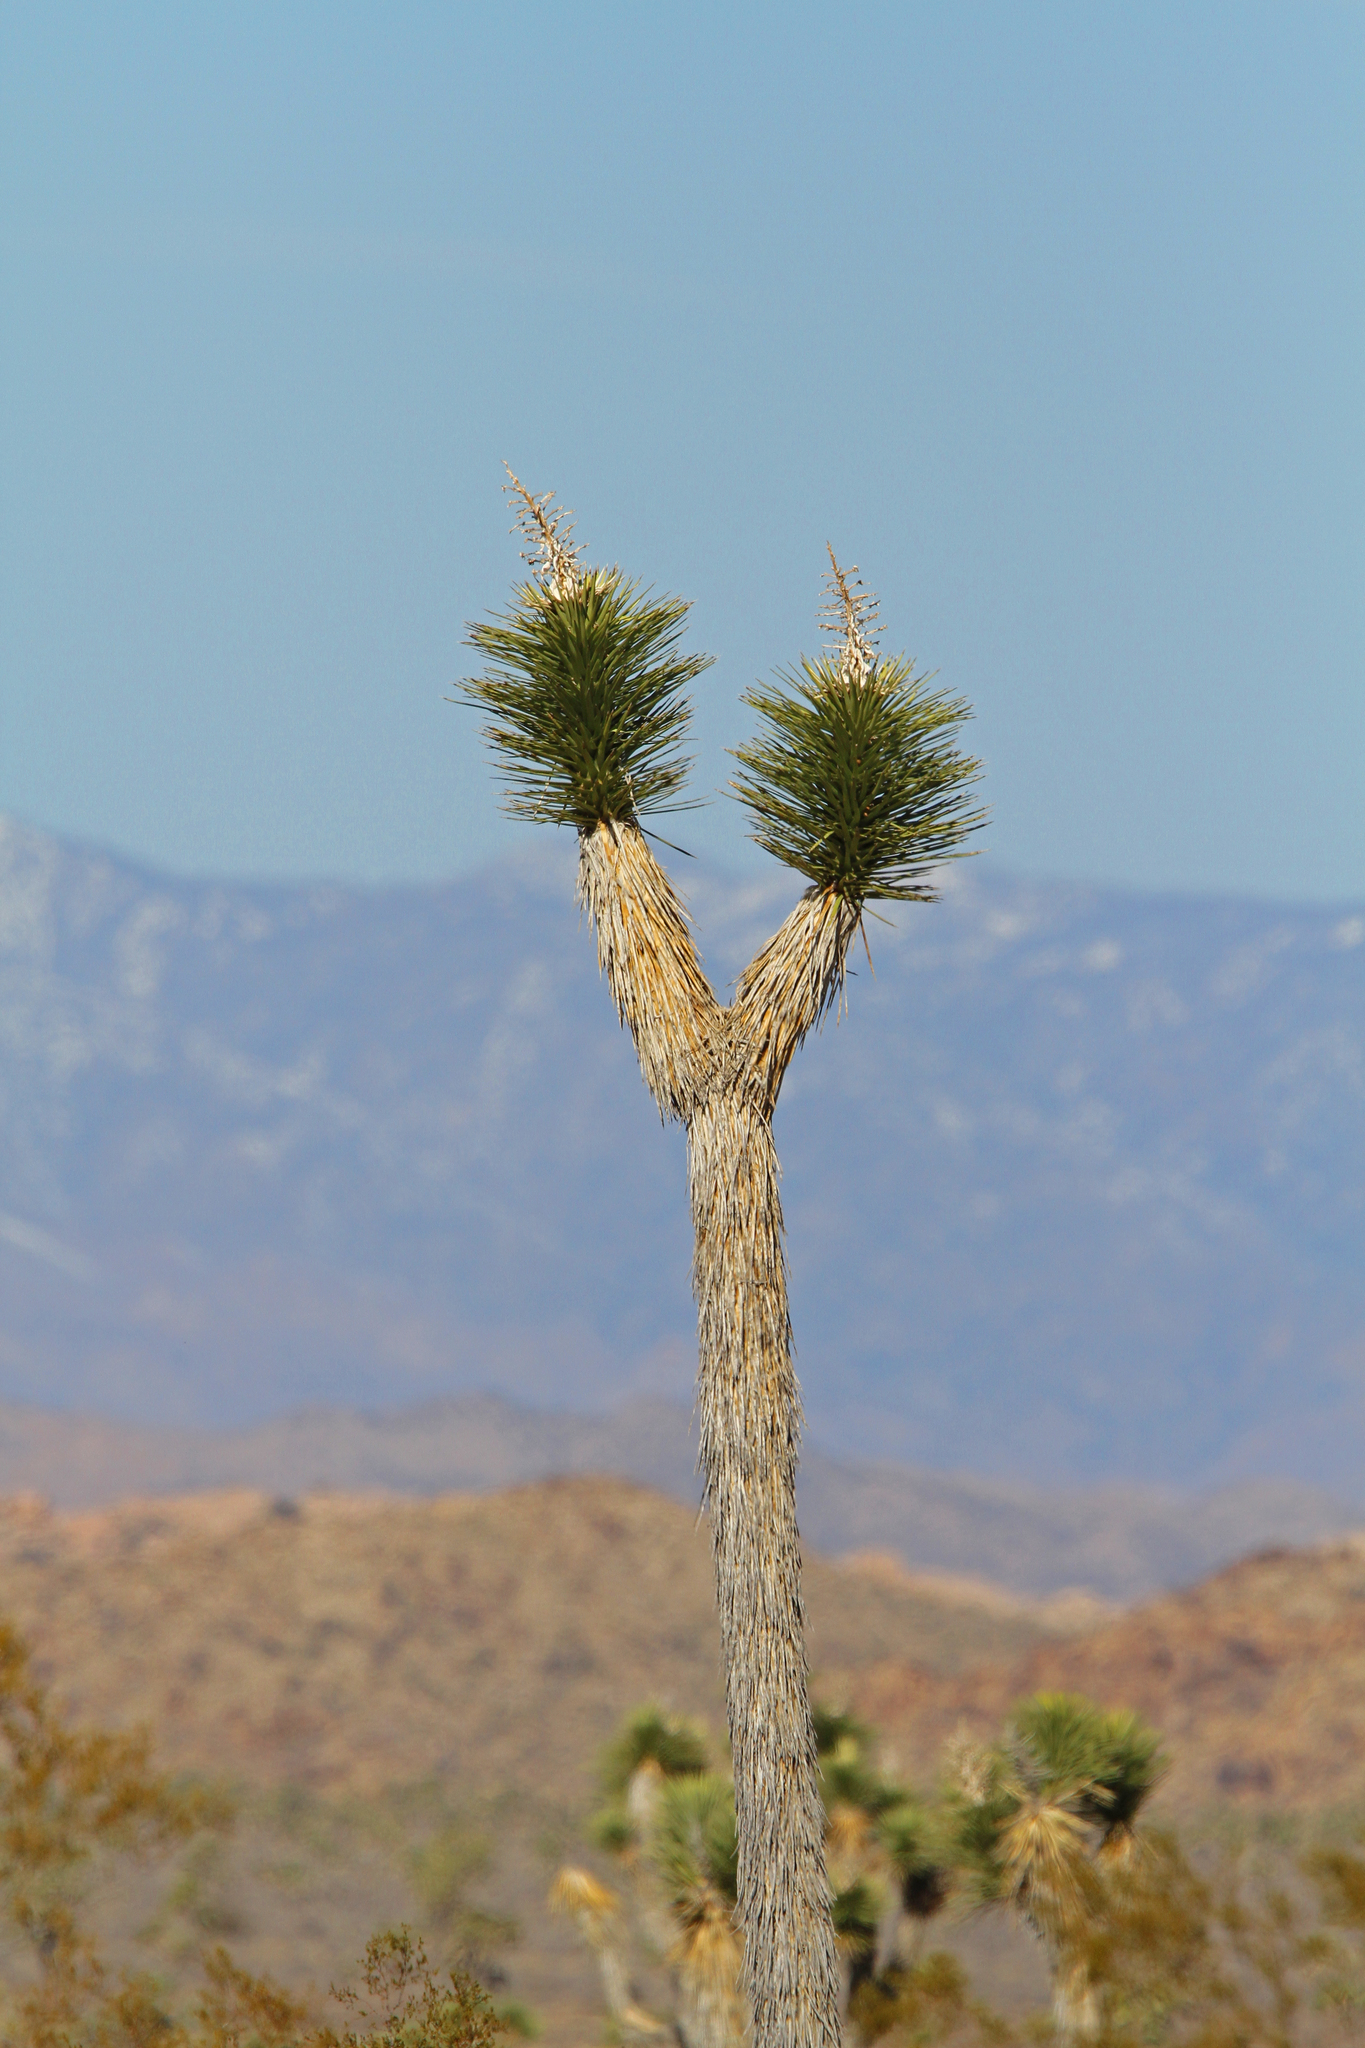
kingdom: Plantae
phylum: Tracheophyta
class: Liliopsida
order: Asparagales
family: Asparagaceae
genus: Yucca
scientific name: Yucca brevifolia
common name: Joshua tree
